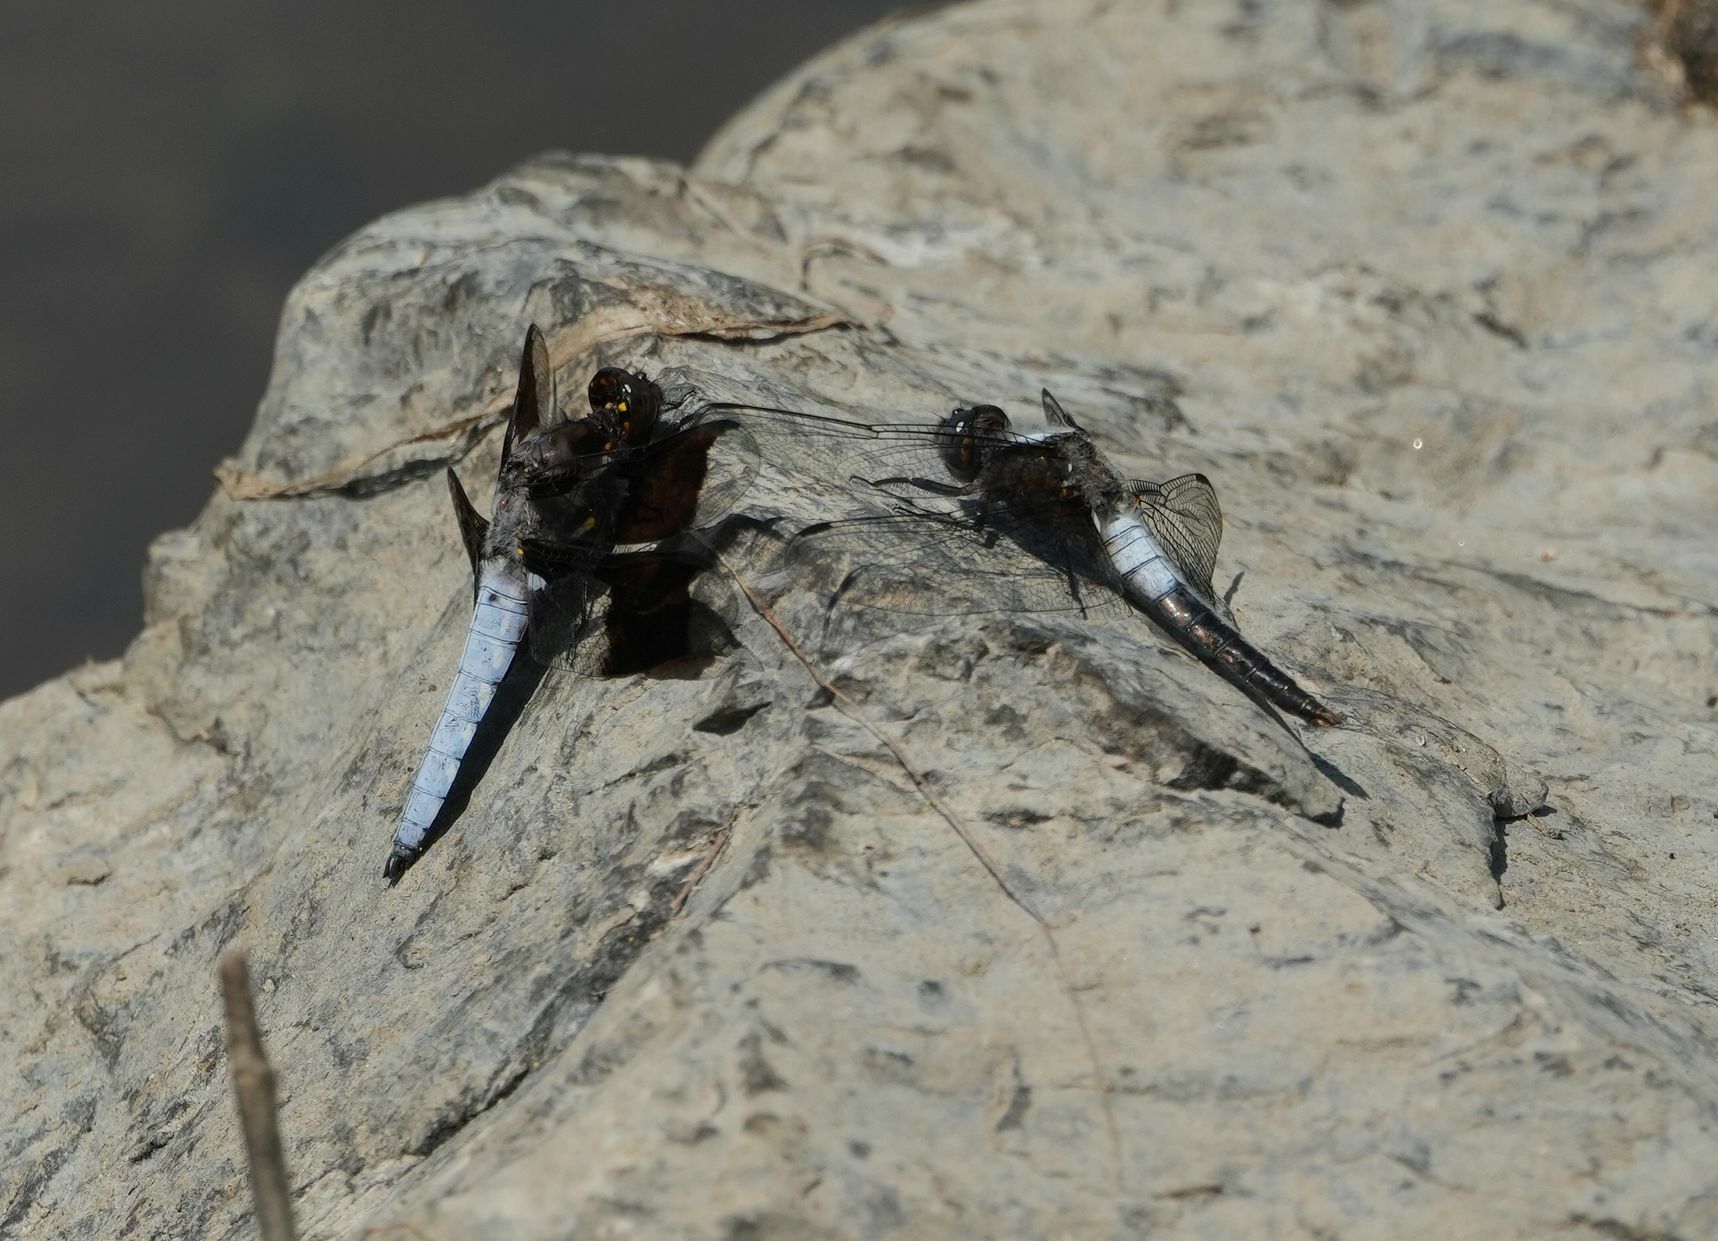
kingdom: Animalia
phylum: Arthropoda
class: Insecta
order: Odonata
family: Libellulidae
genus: Ladona
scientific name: Ladona julia
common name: Chalk-fronted corporal
